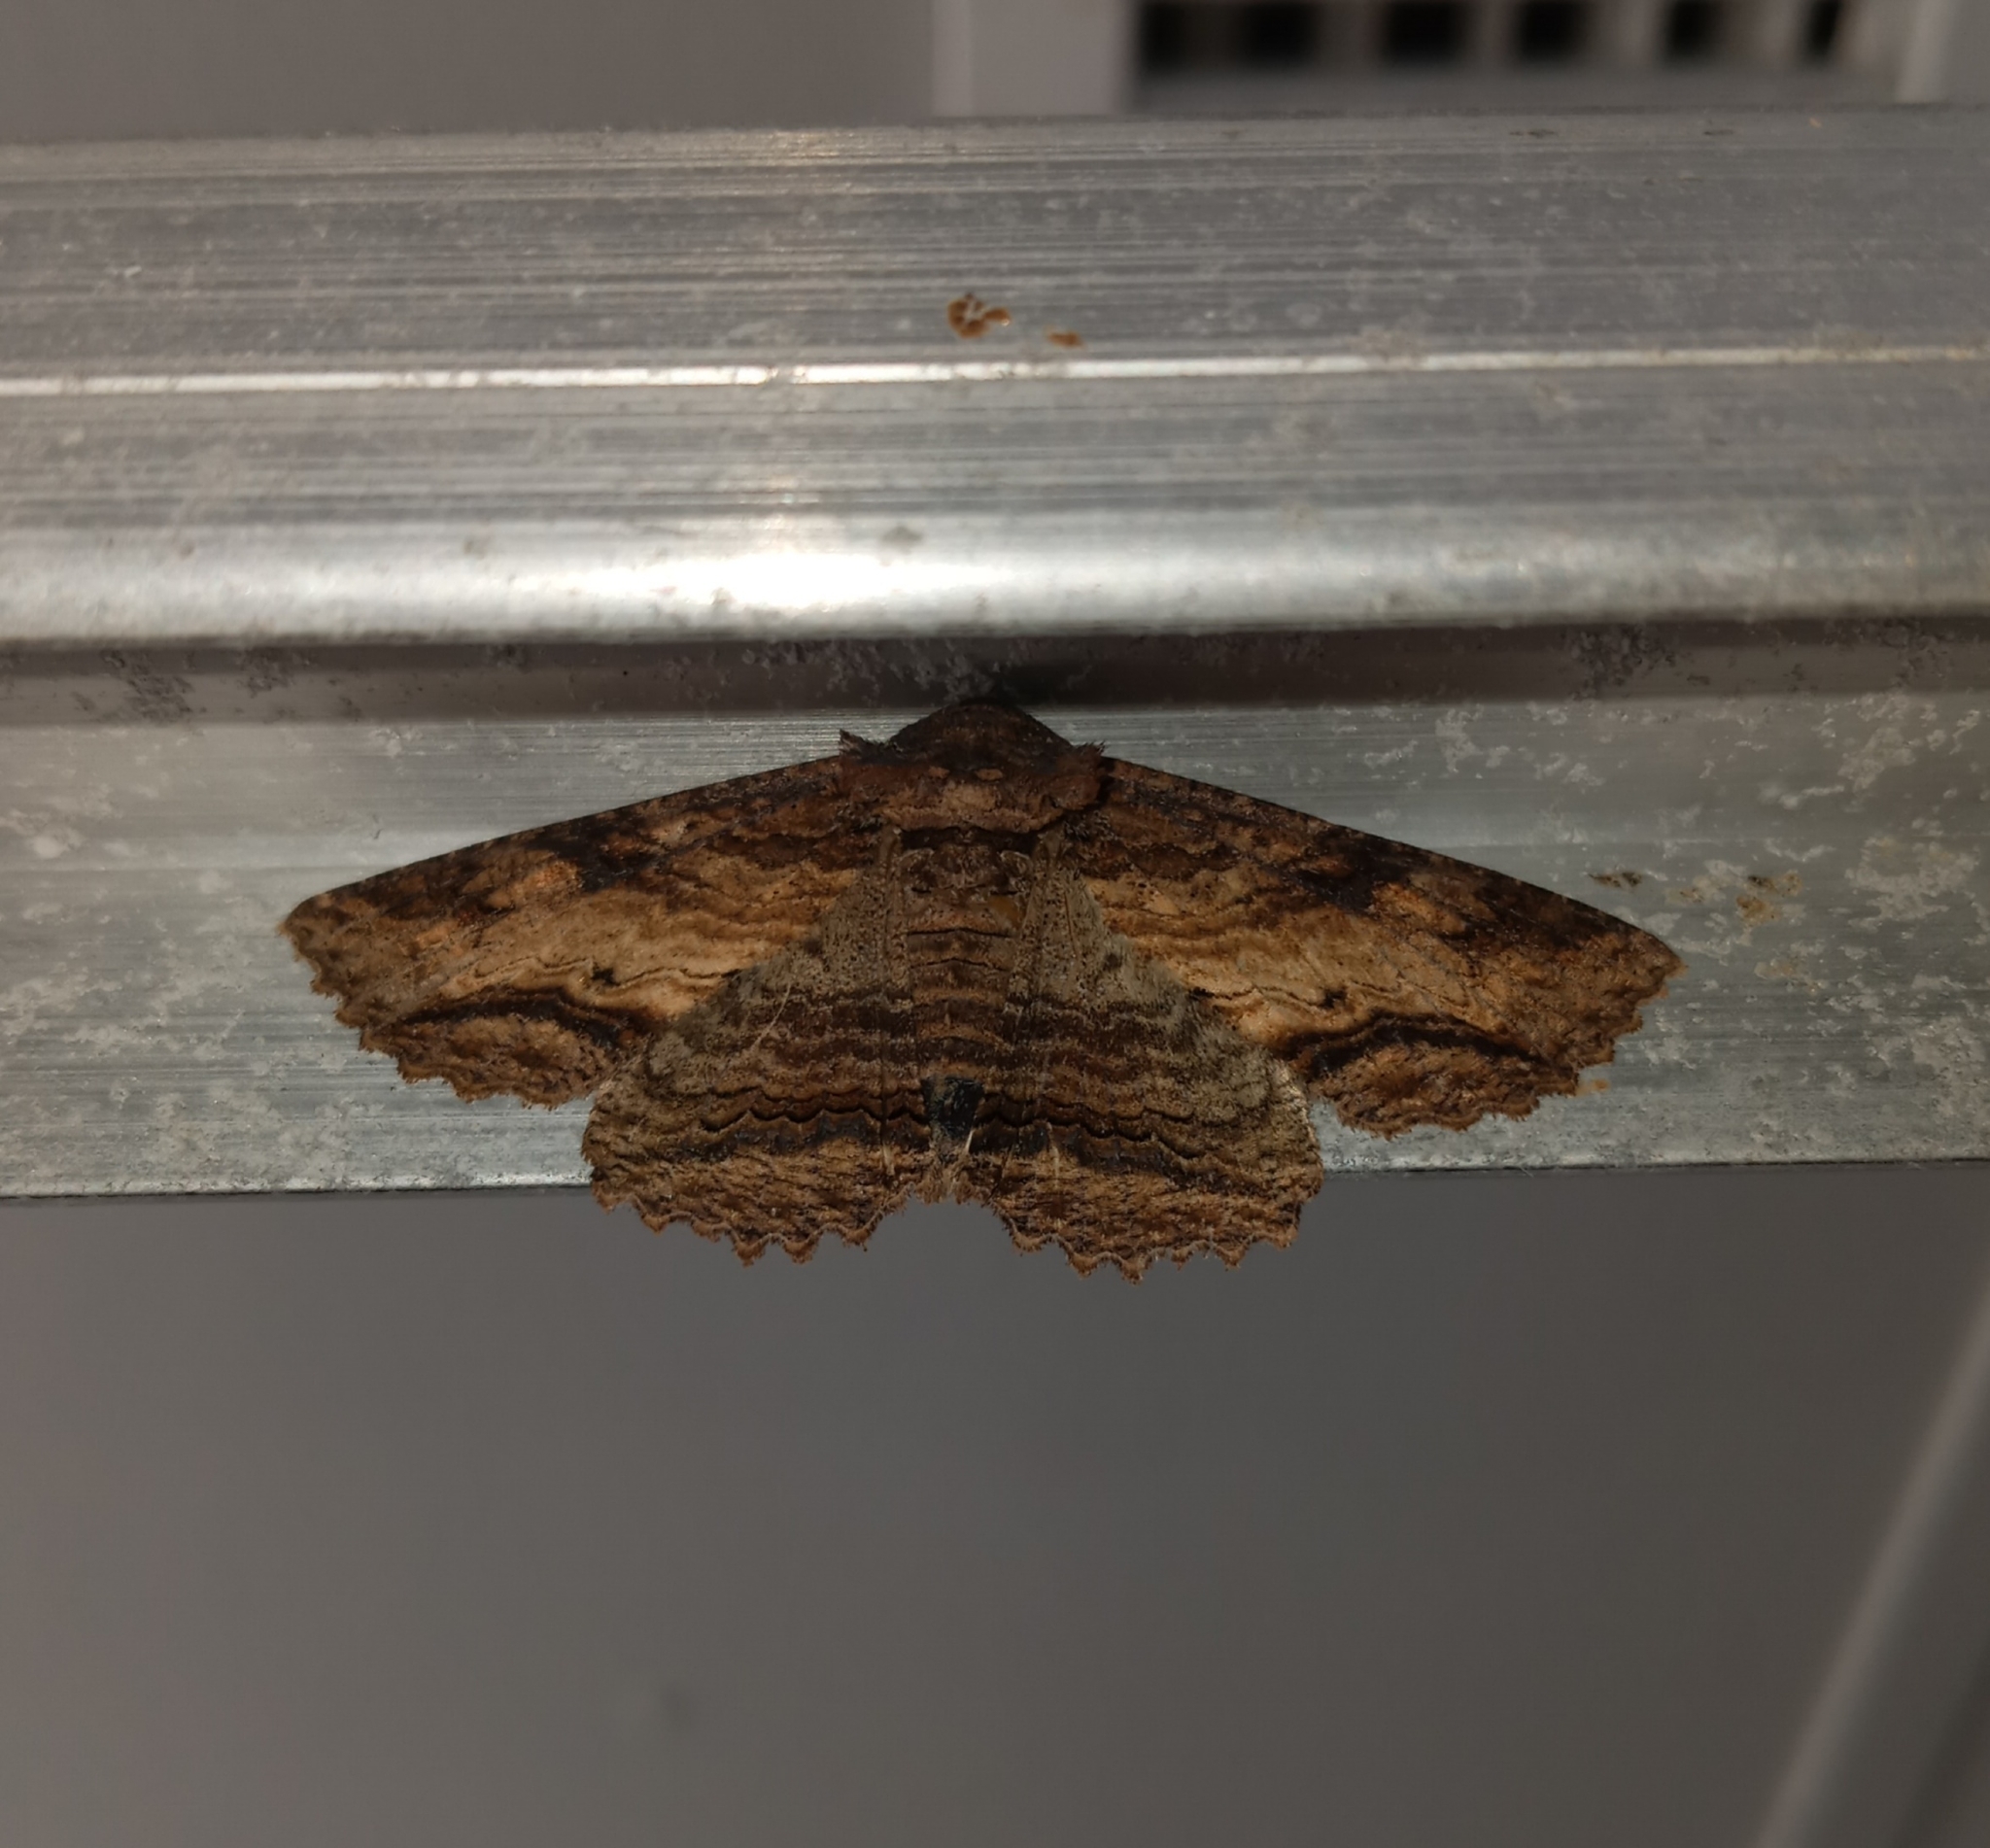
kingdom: Animalia
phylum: Arthropoda
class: Insecta
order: Lepidoptera
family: Erebidae
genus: Zale
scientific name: Zale lunata
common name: Lunate zale moth
